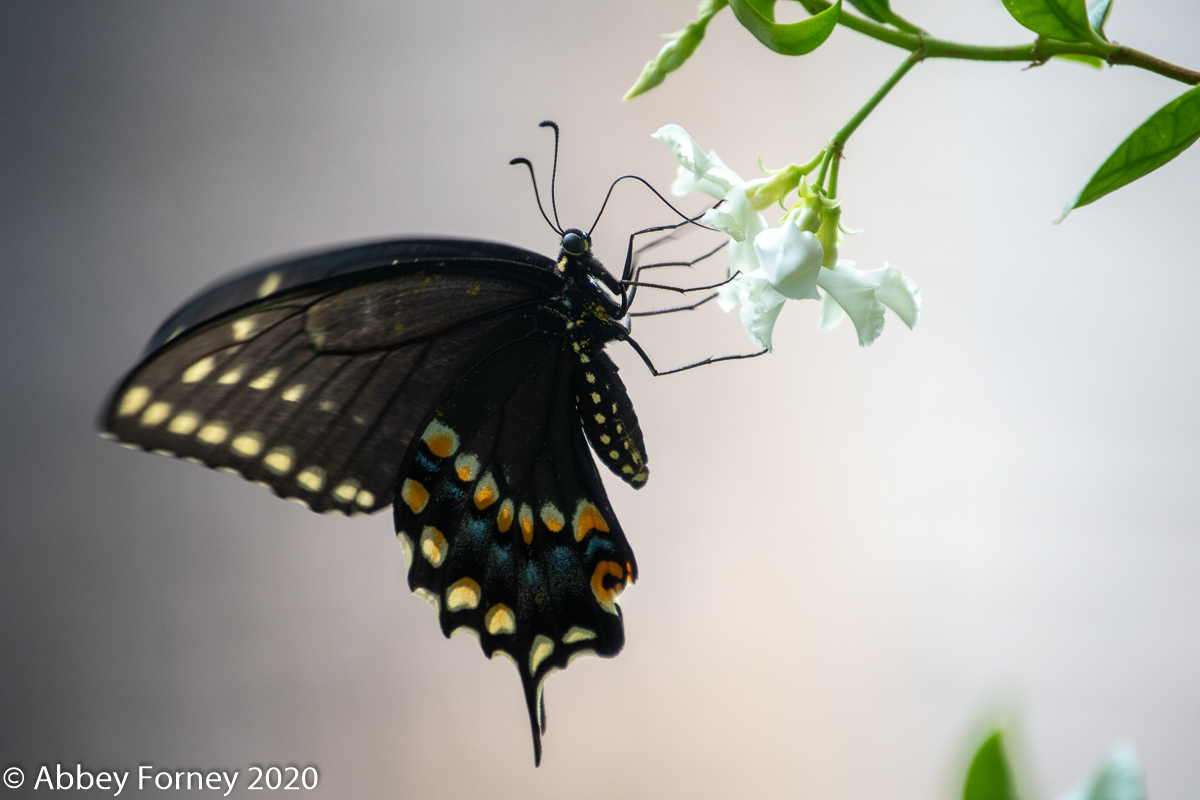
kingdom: Animalia
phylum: Arthropoda
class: Insecta
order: Lepidoptera
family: Papilionidae
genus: Papilio
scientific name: Papilio polyxenes
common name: Black swallowtail
